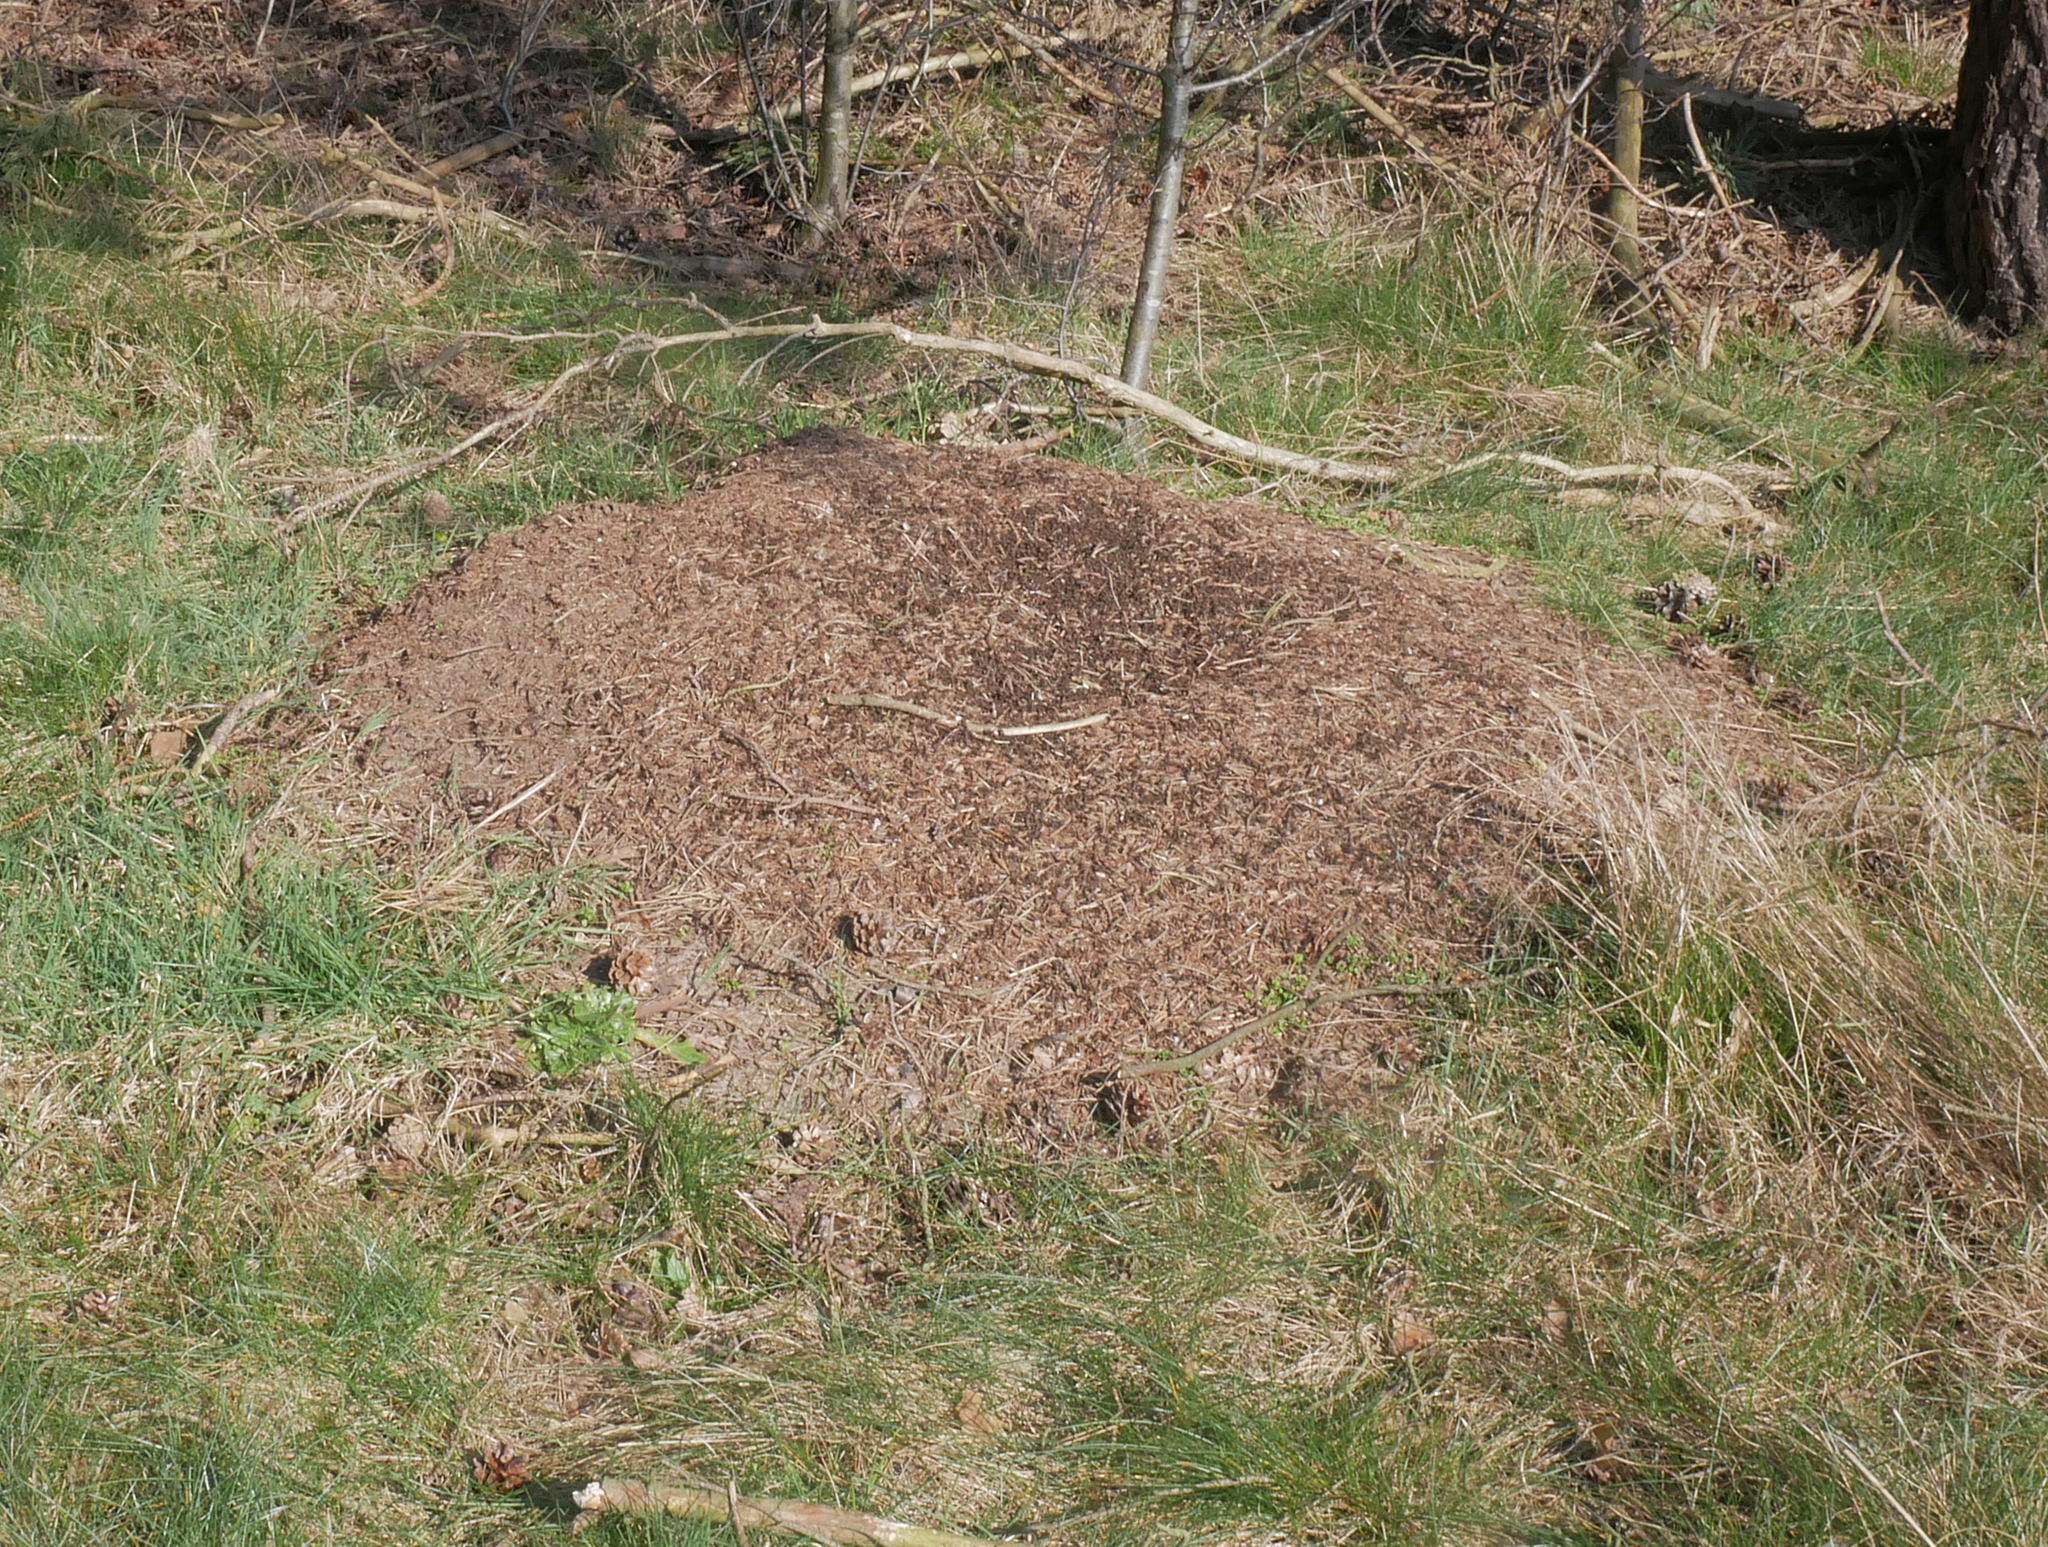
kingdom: Animalia
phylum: Arthropoda
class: Insecta
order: Hymenoptera
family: Formicidae
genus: Formica
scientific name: Formica
